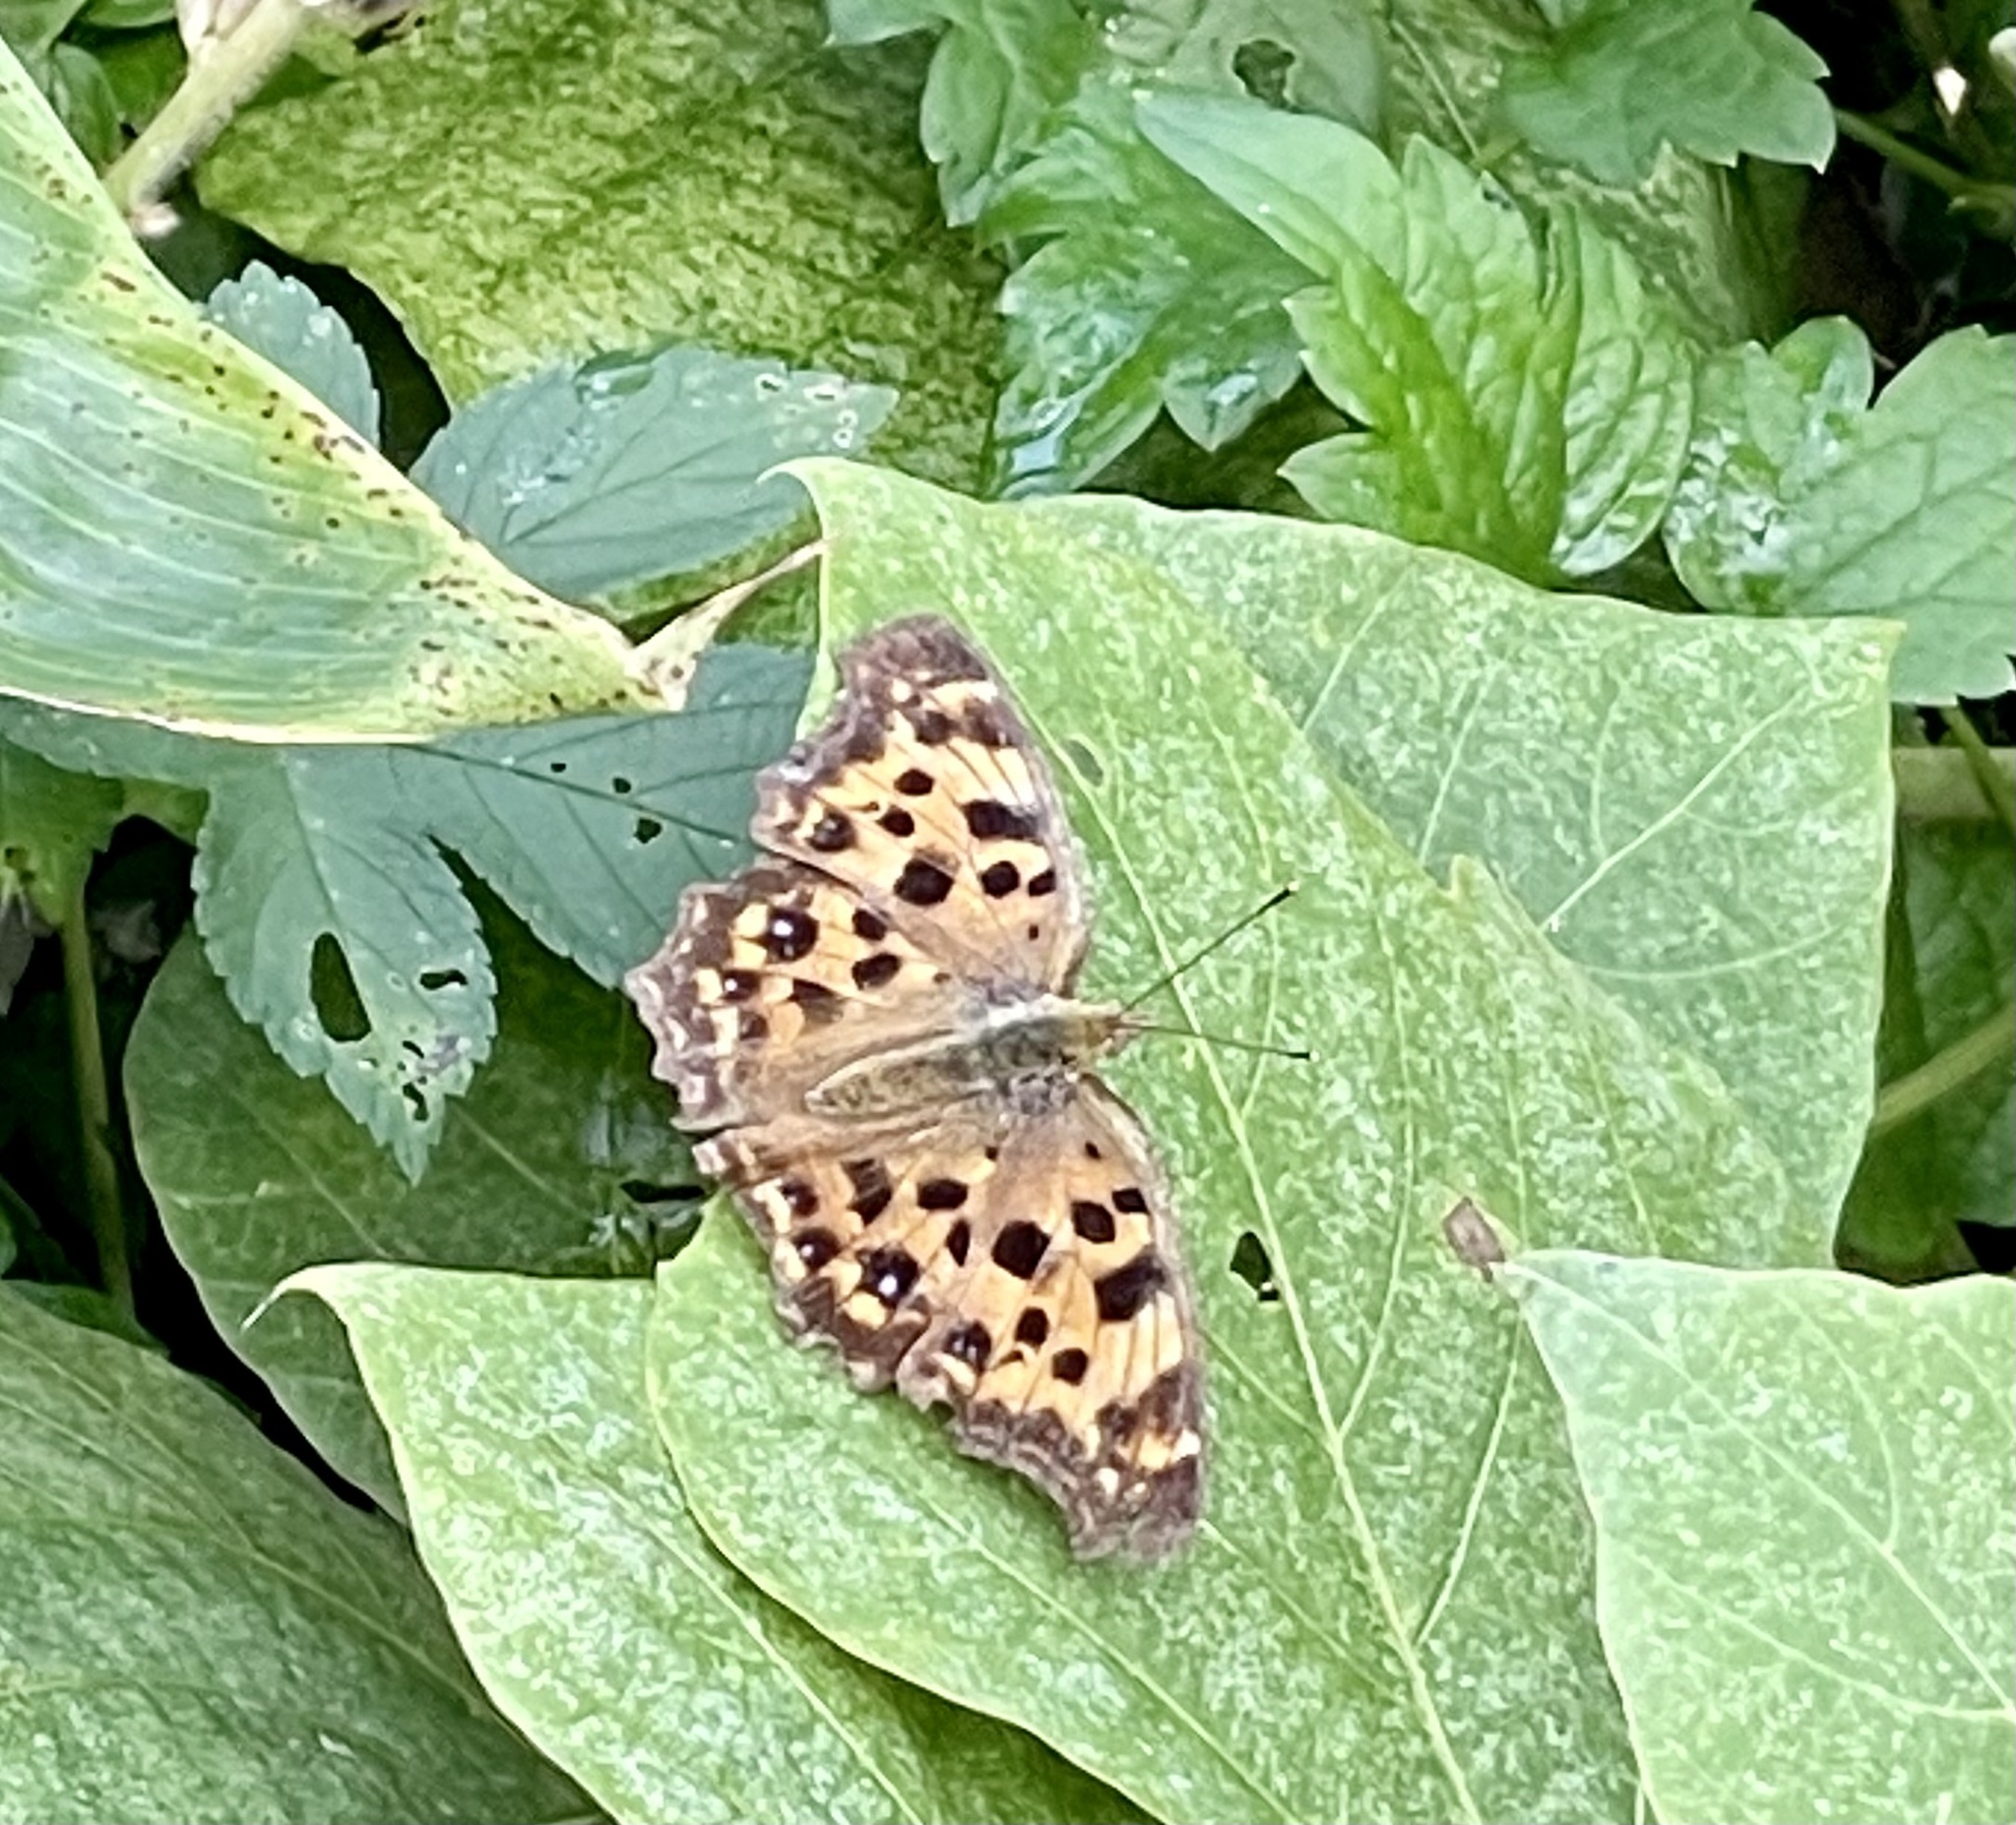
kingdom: Animalia
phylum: Arthropoda
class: Insecta
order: Lepidoptera
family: Nymphalidae
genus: Polygonia
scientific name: Polygonia c-aureum
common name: Asian comma
